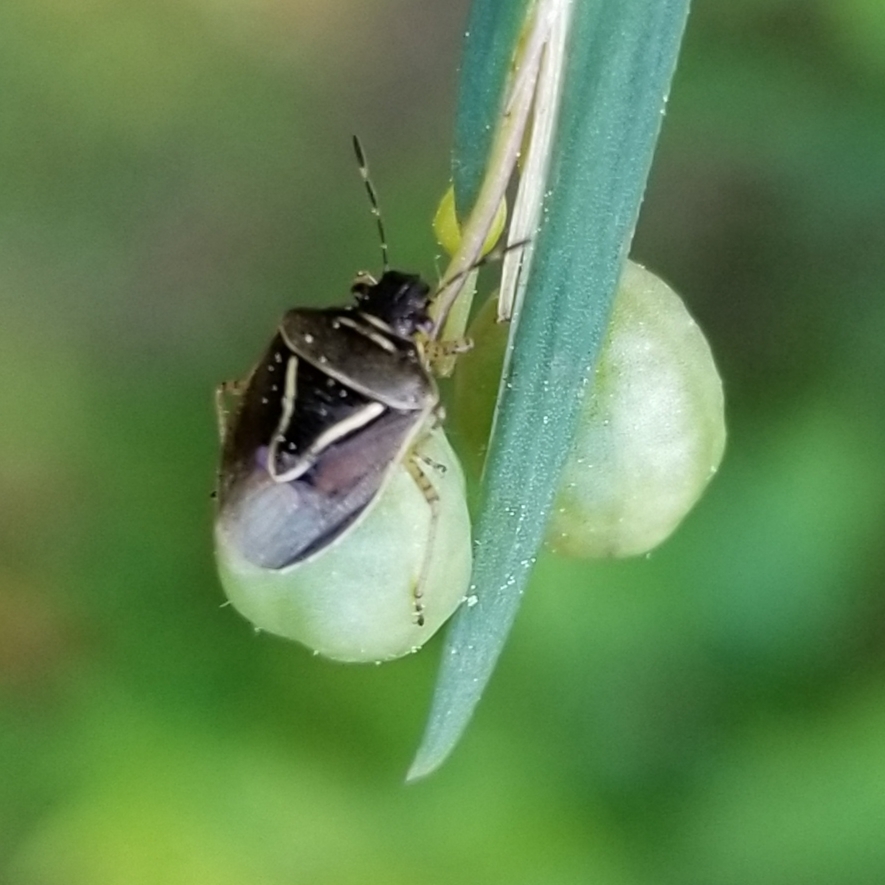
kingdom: Animalia
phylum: Arthropoda
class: Insecta
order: Hemiptera
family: Pentatomidae
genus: Mormidea
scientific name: Mormidea lugens
